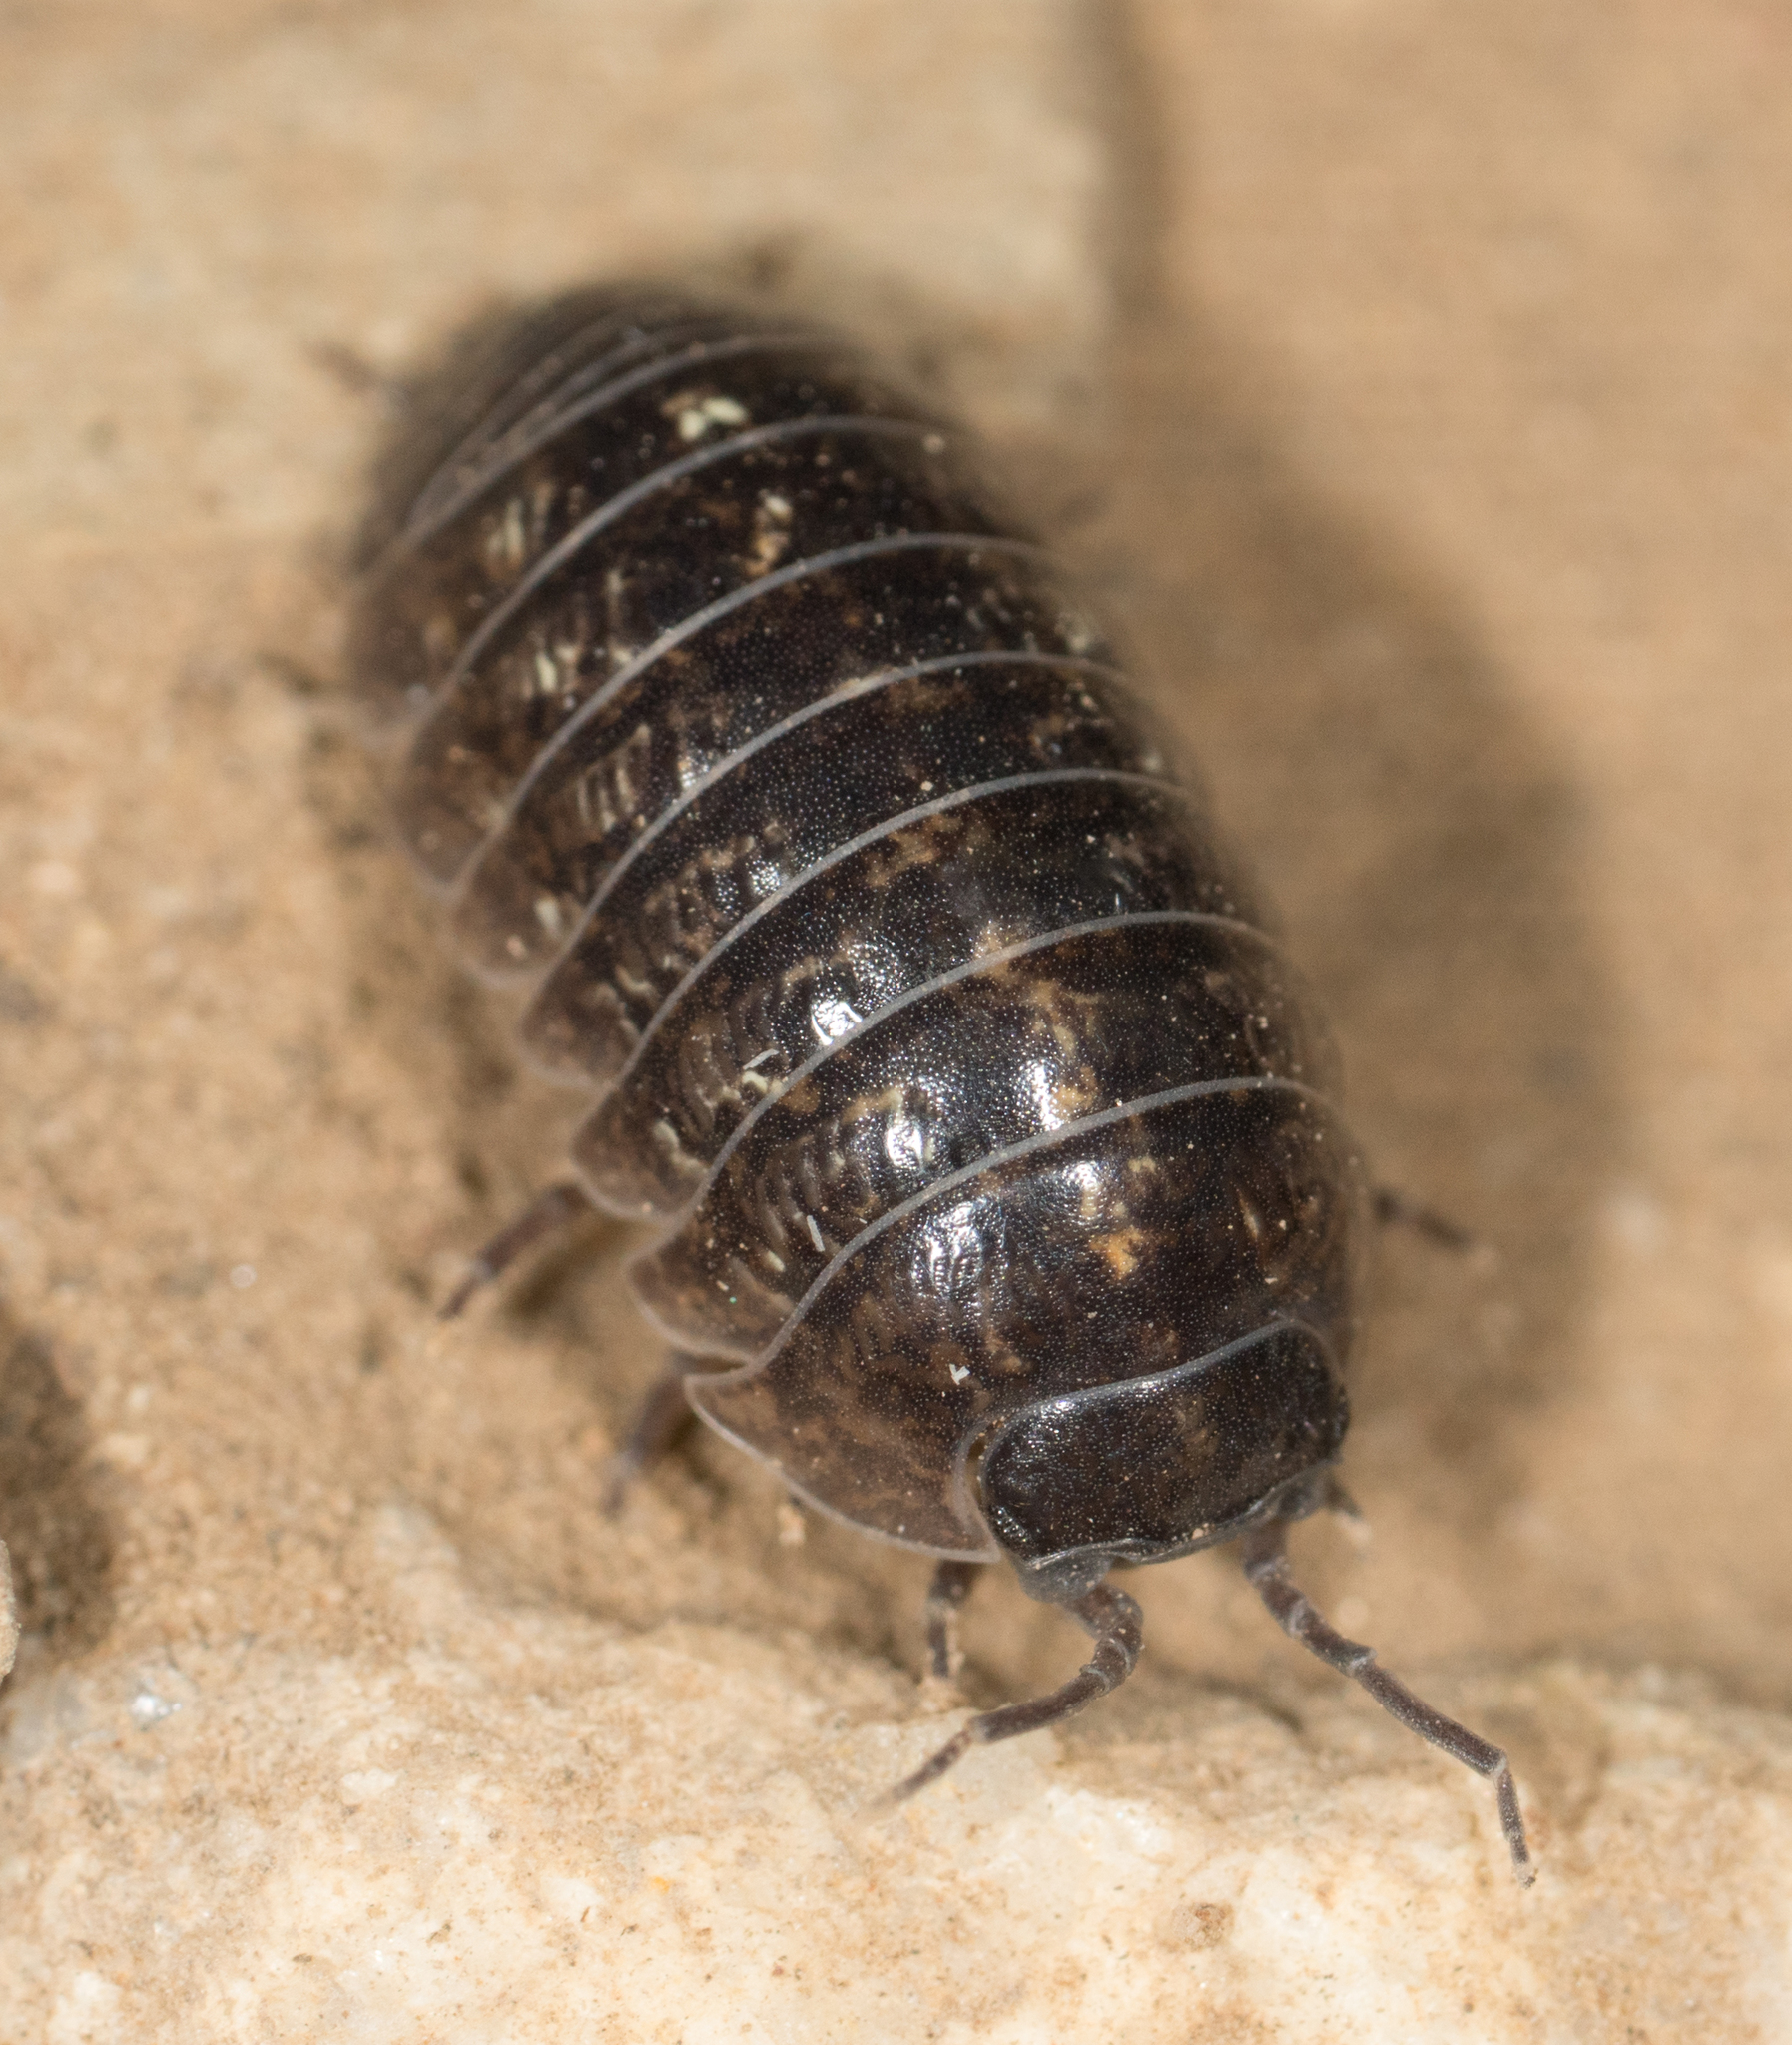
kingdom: Animalia
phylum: Arthropoda
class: Malacostraca
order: Isopoda
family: Armadillidiidae
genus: Armadillidium
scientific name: Armadillidium vulgare
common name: Common pill woodlouse
